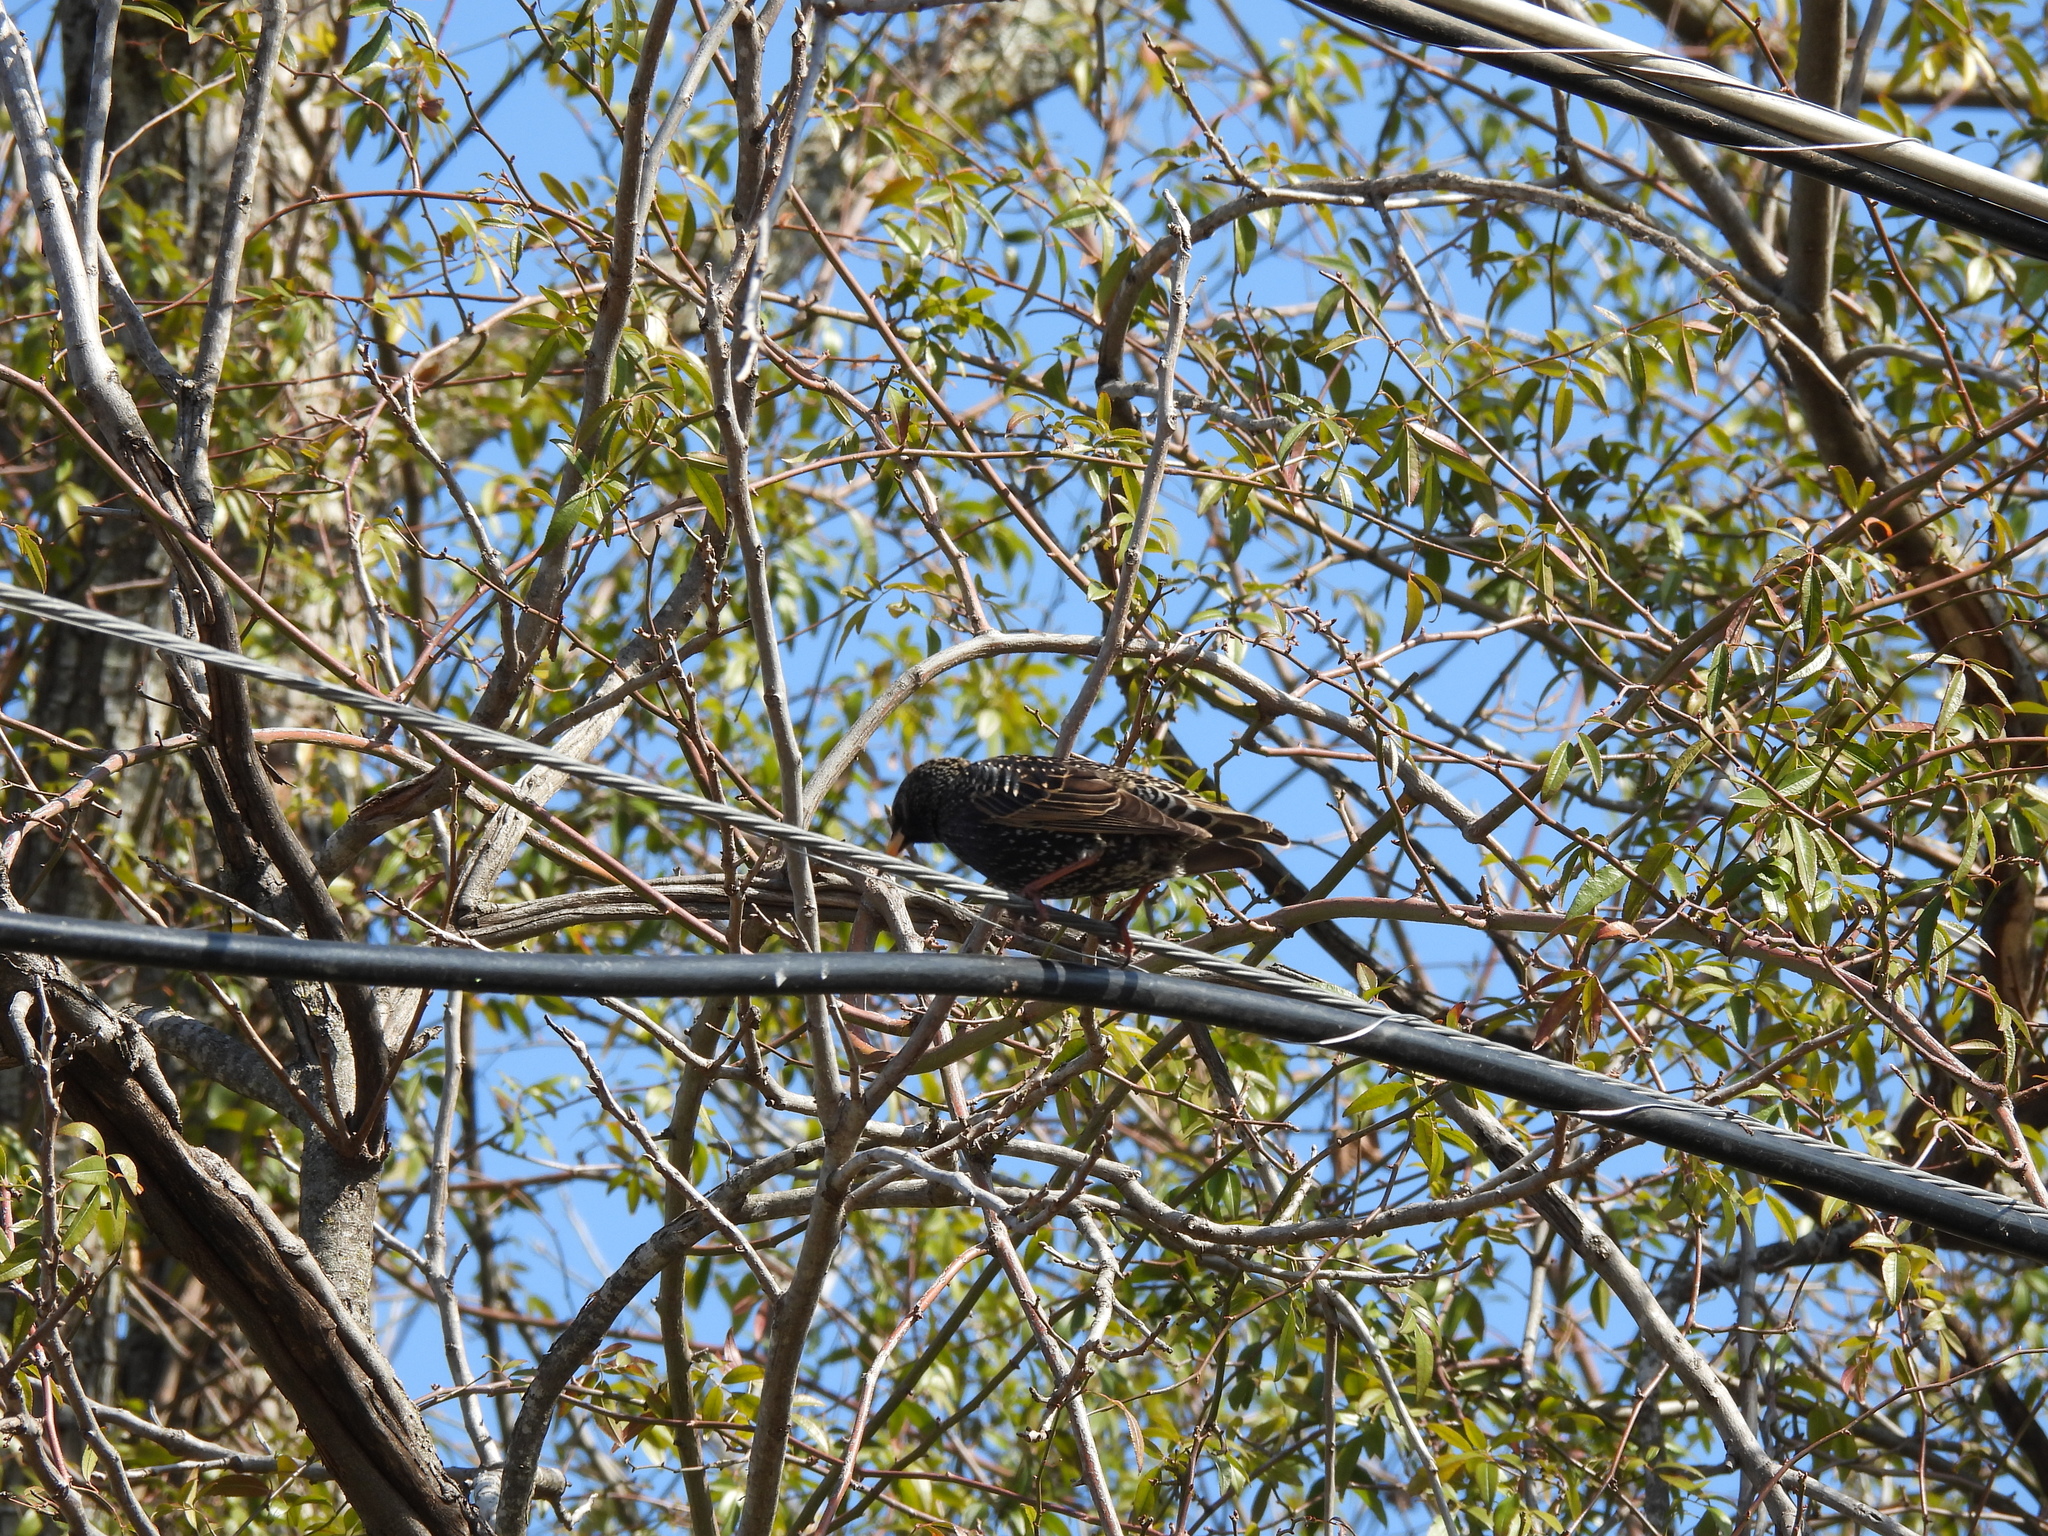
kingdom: Animalia
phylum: Chordata
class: Aves
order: Passeriformes
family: Sturnidae
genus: Sturnus
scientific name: Sturnus vulgaris
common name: Common starling
